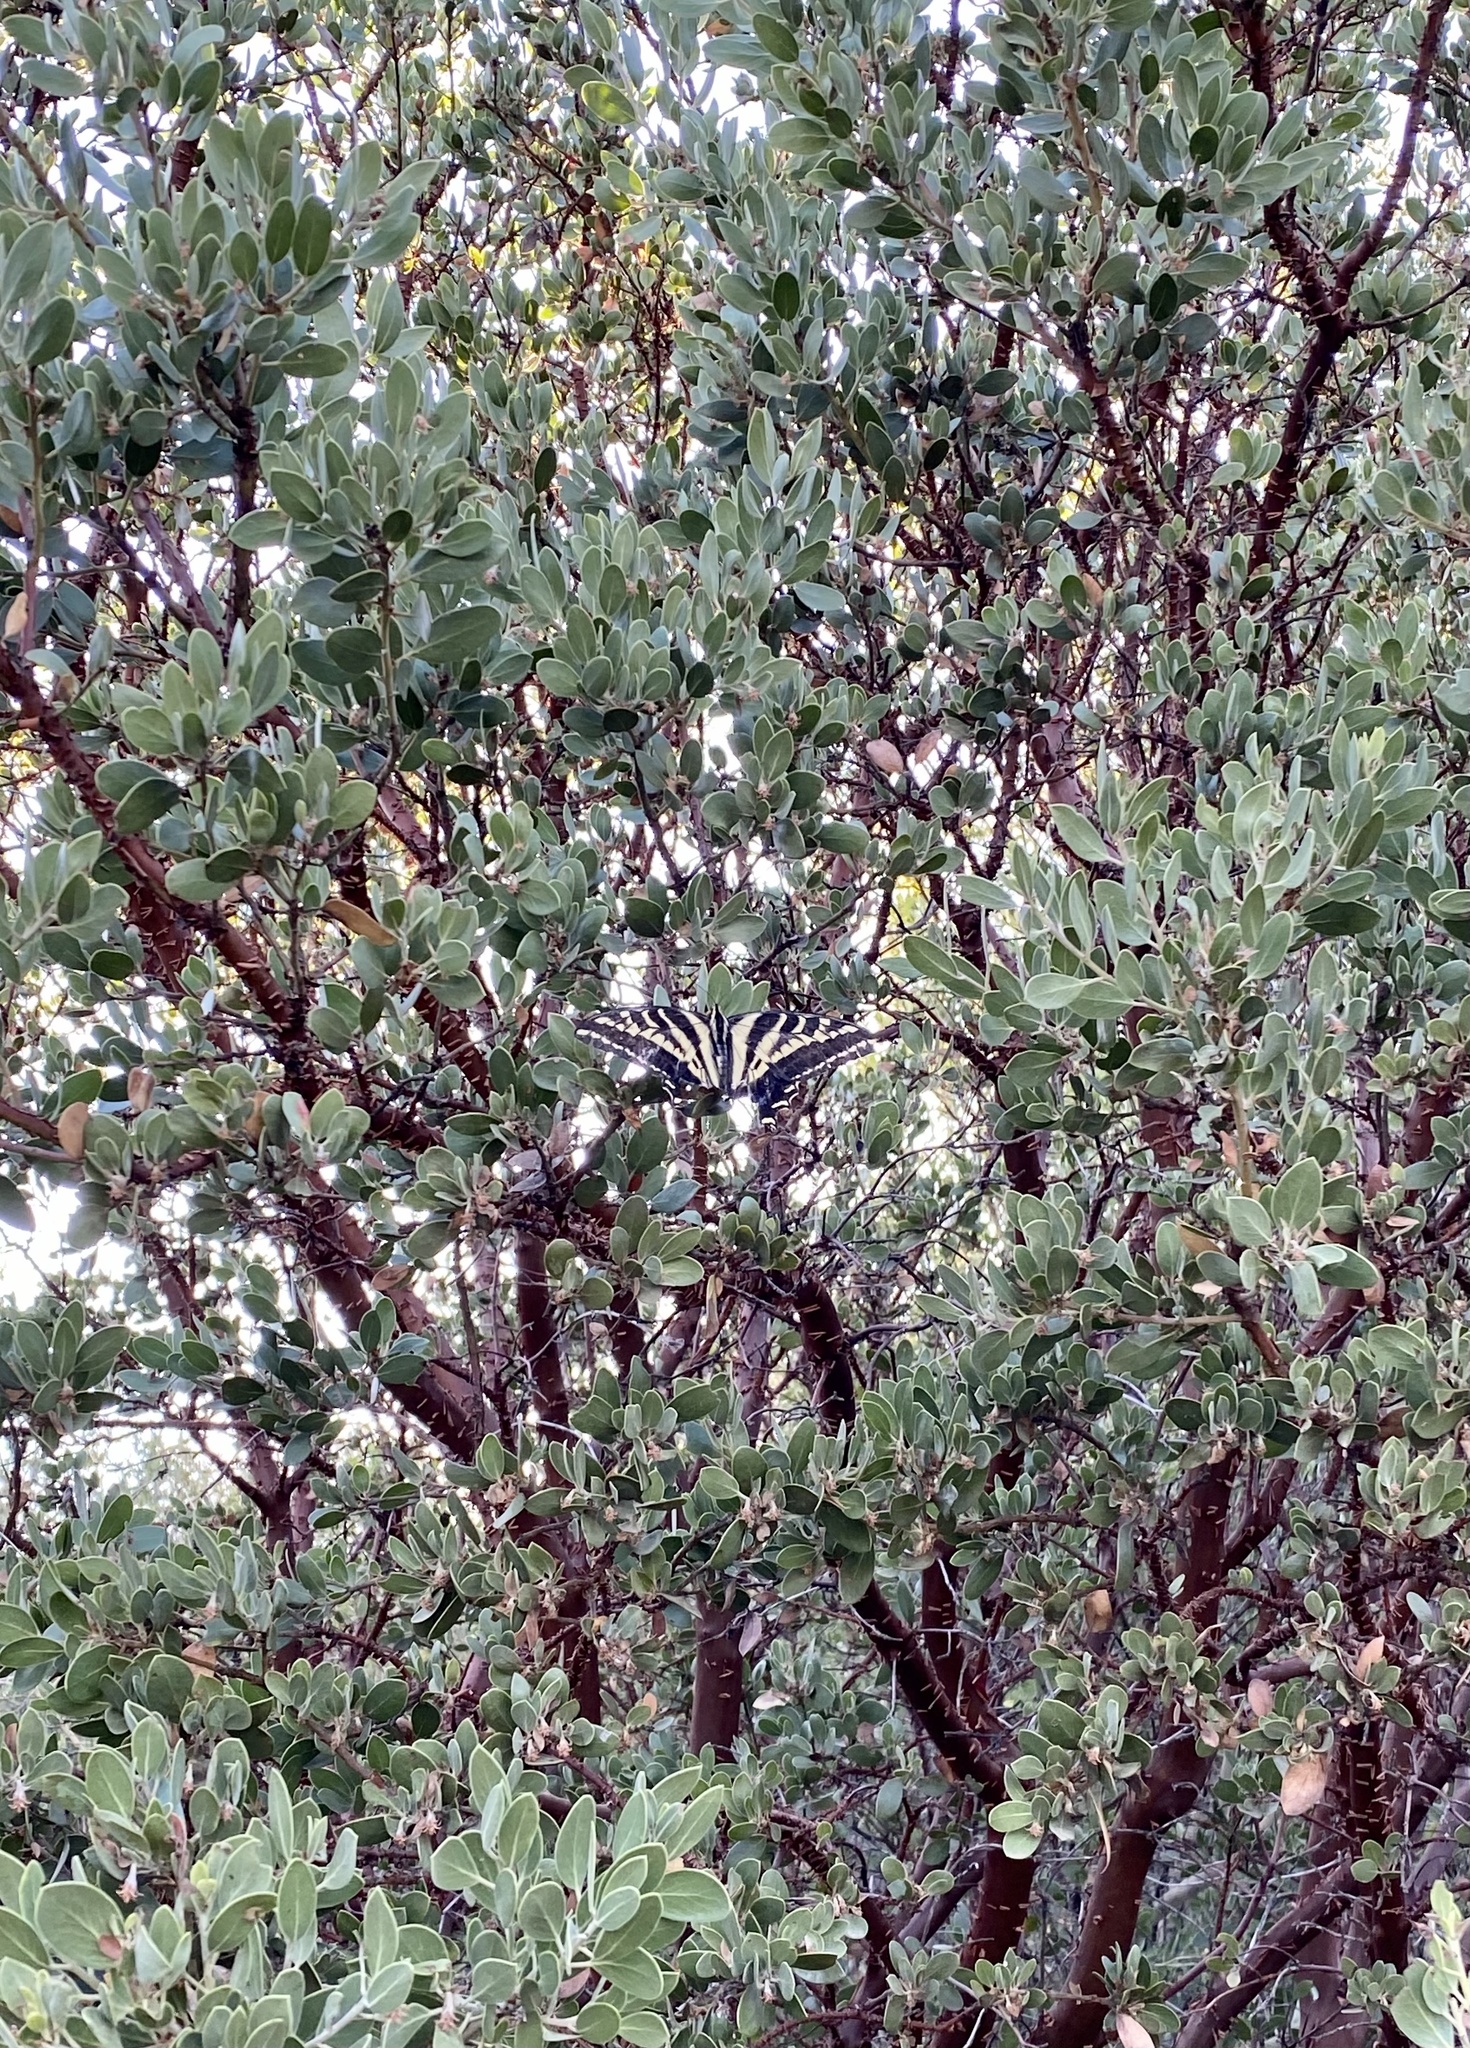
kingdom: Animalia
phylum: Arthropoda
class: Insecta
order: Lepidoptera
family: Papilionidae
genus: Papilio
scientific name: Papilio eurymedon
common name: Pale tiger swallowtail
